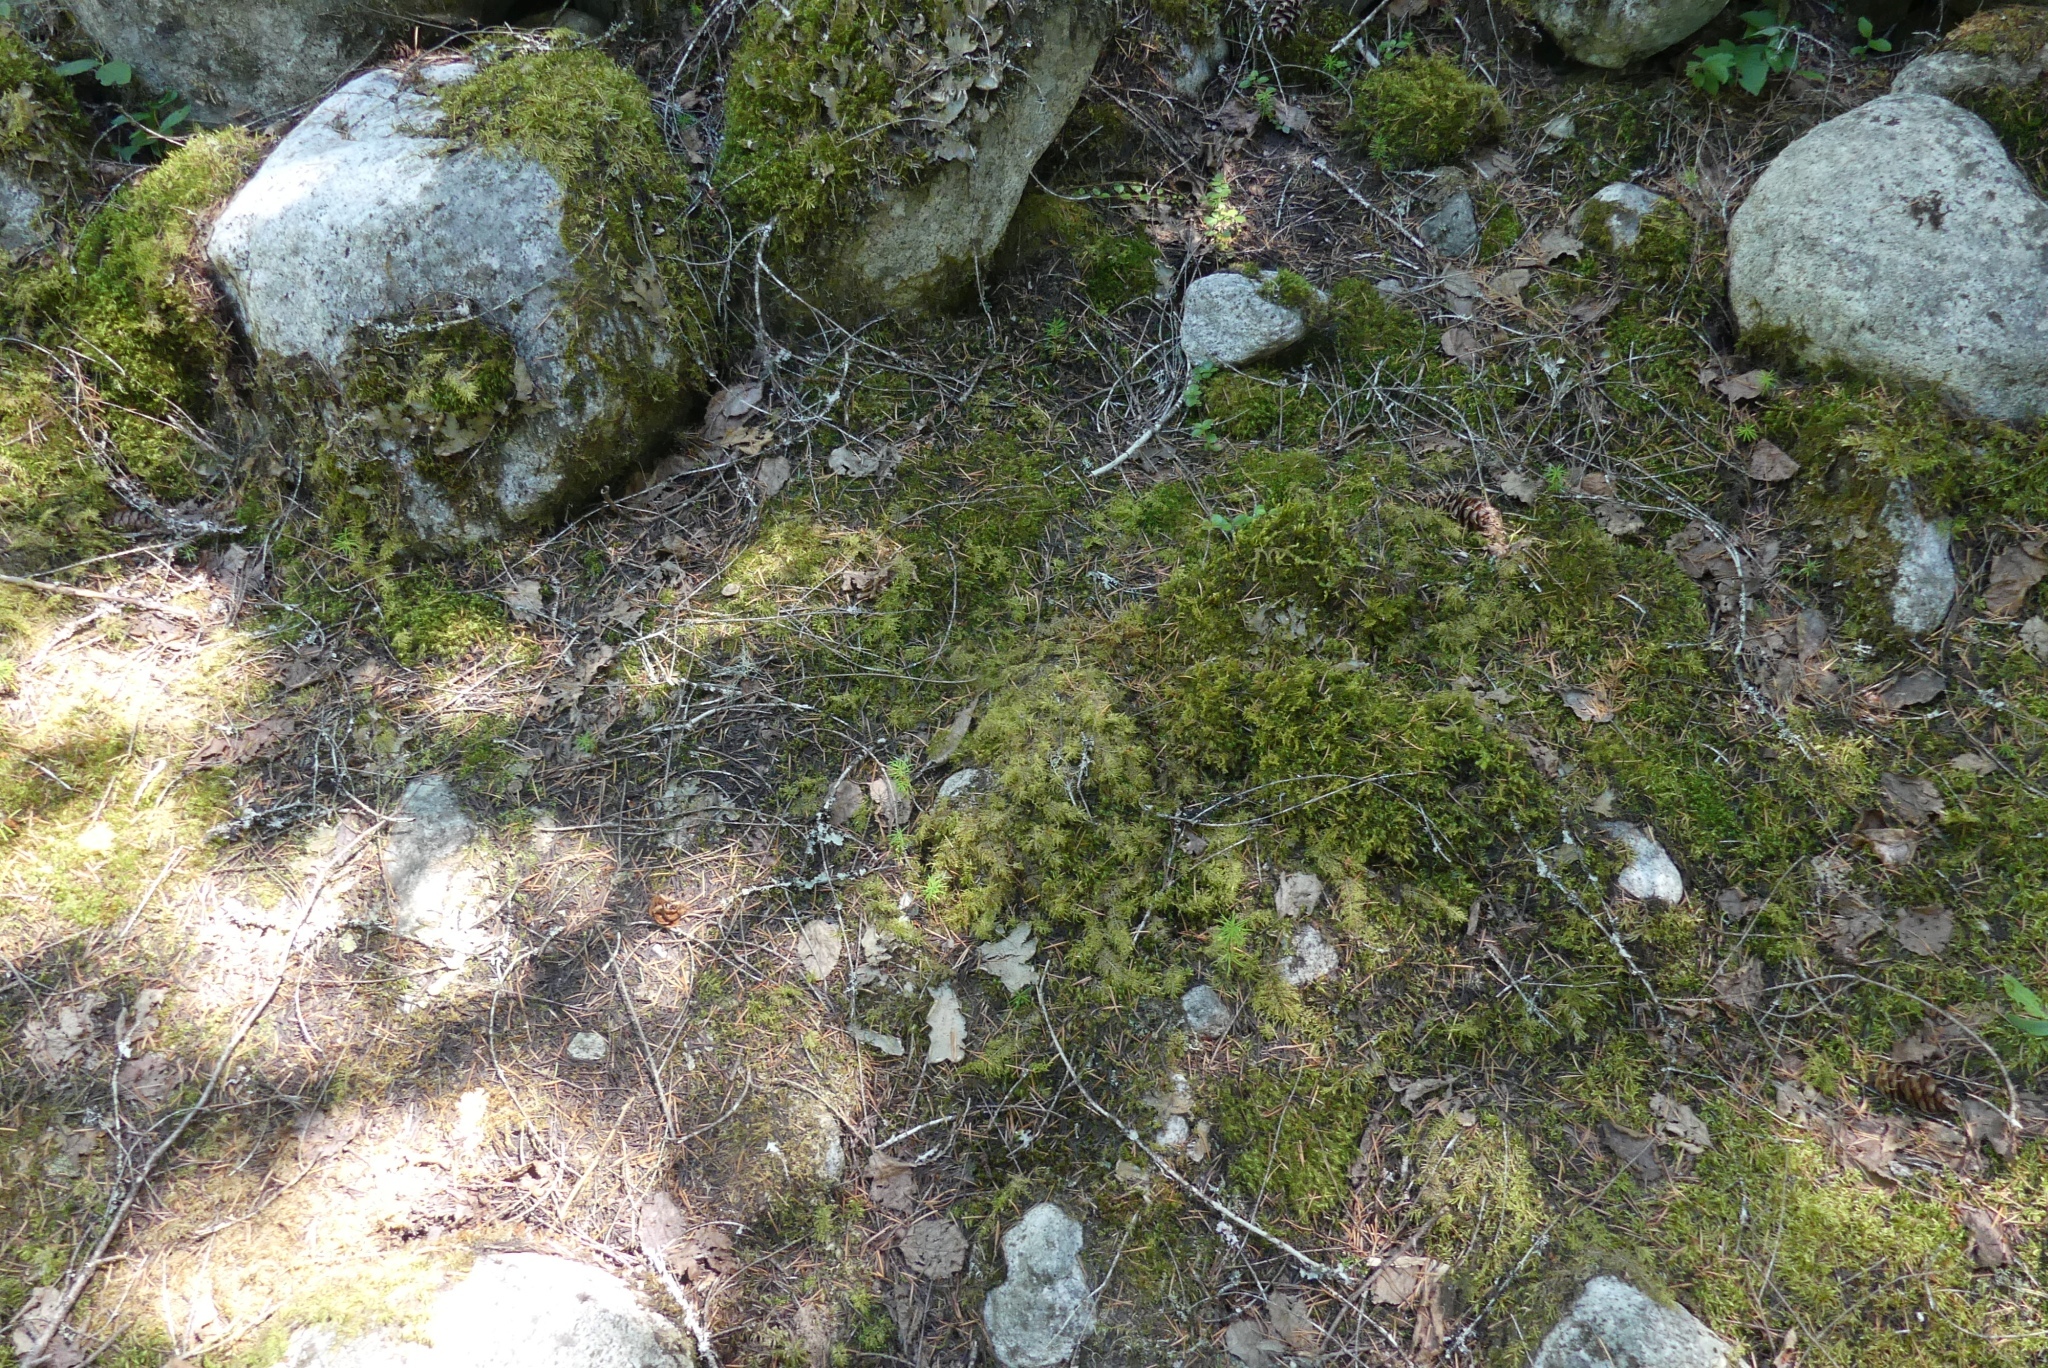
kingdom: Plantae
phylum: Bryophyta
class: Bryopsida
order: Hypnales
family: Hylocomiaceae
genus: Hylocomium
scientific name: Hylocomium splendens
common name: Stairstep moss
